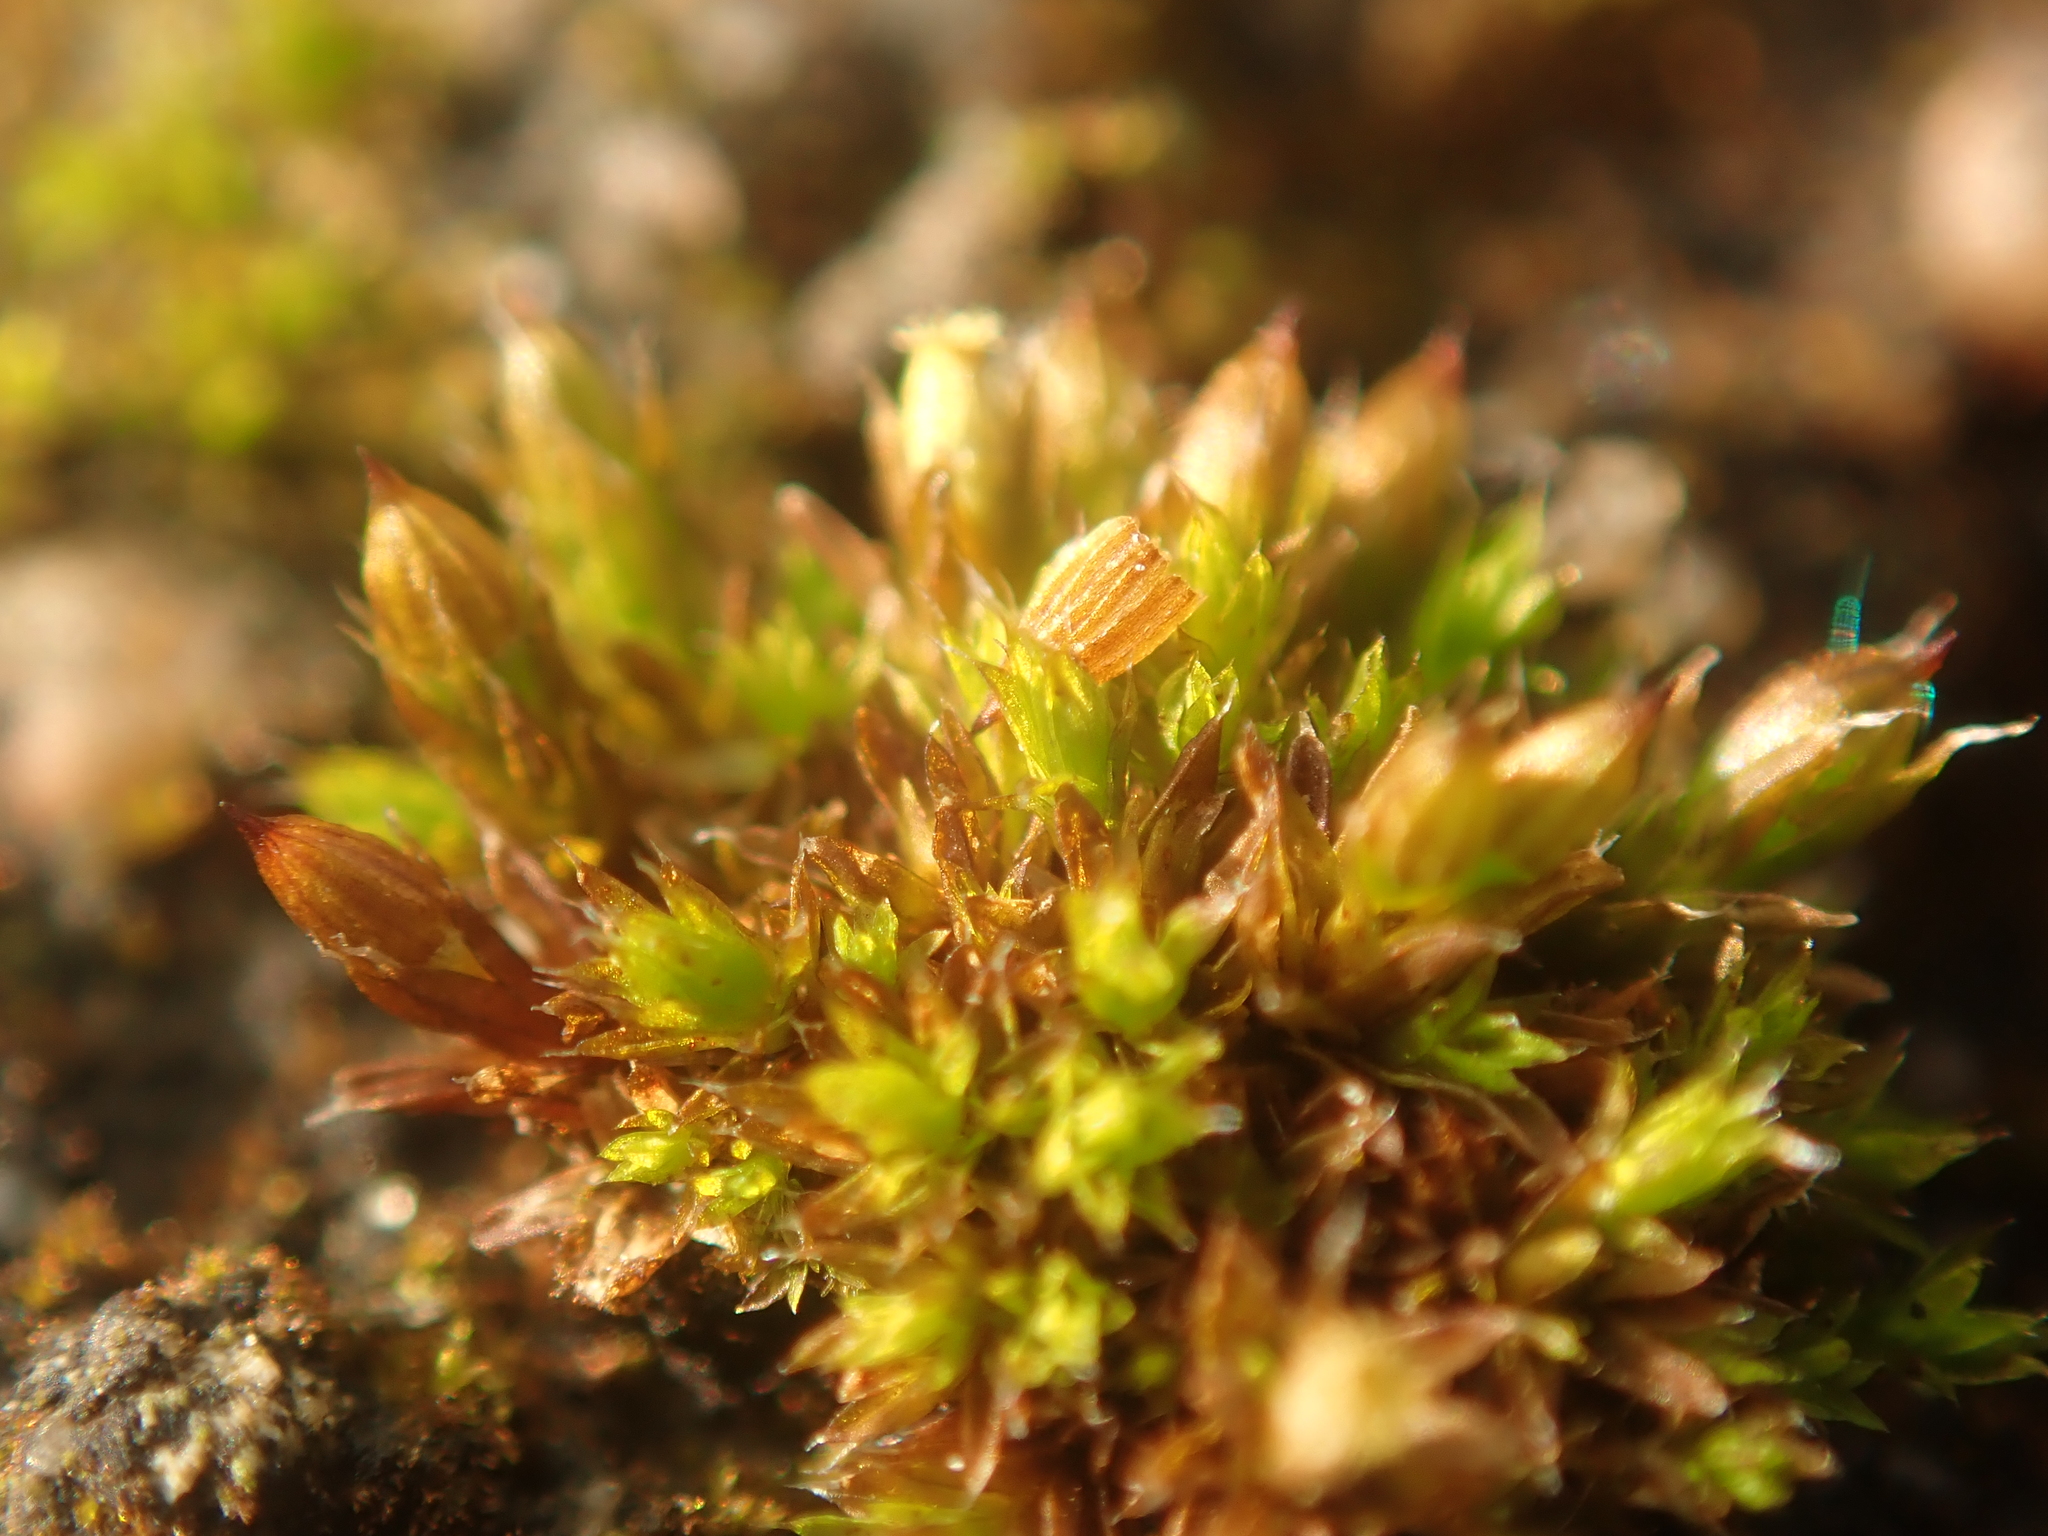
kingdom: Plantae
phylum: Bryophyta
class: Bryopsida
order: Orthotrichales
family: Orthotrichaceae
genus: Orthotrichum
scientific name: Orthotrichum diaphanum
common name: White-tipped bristle-moss
